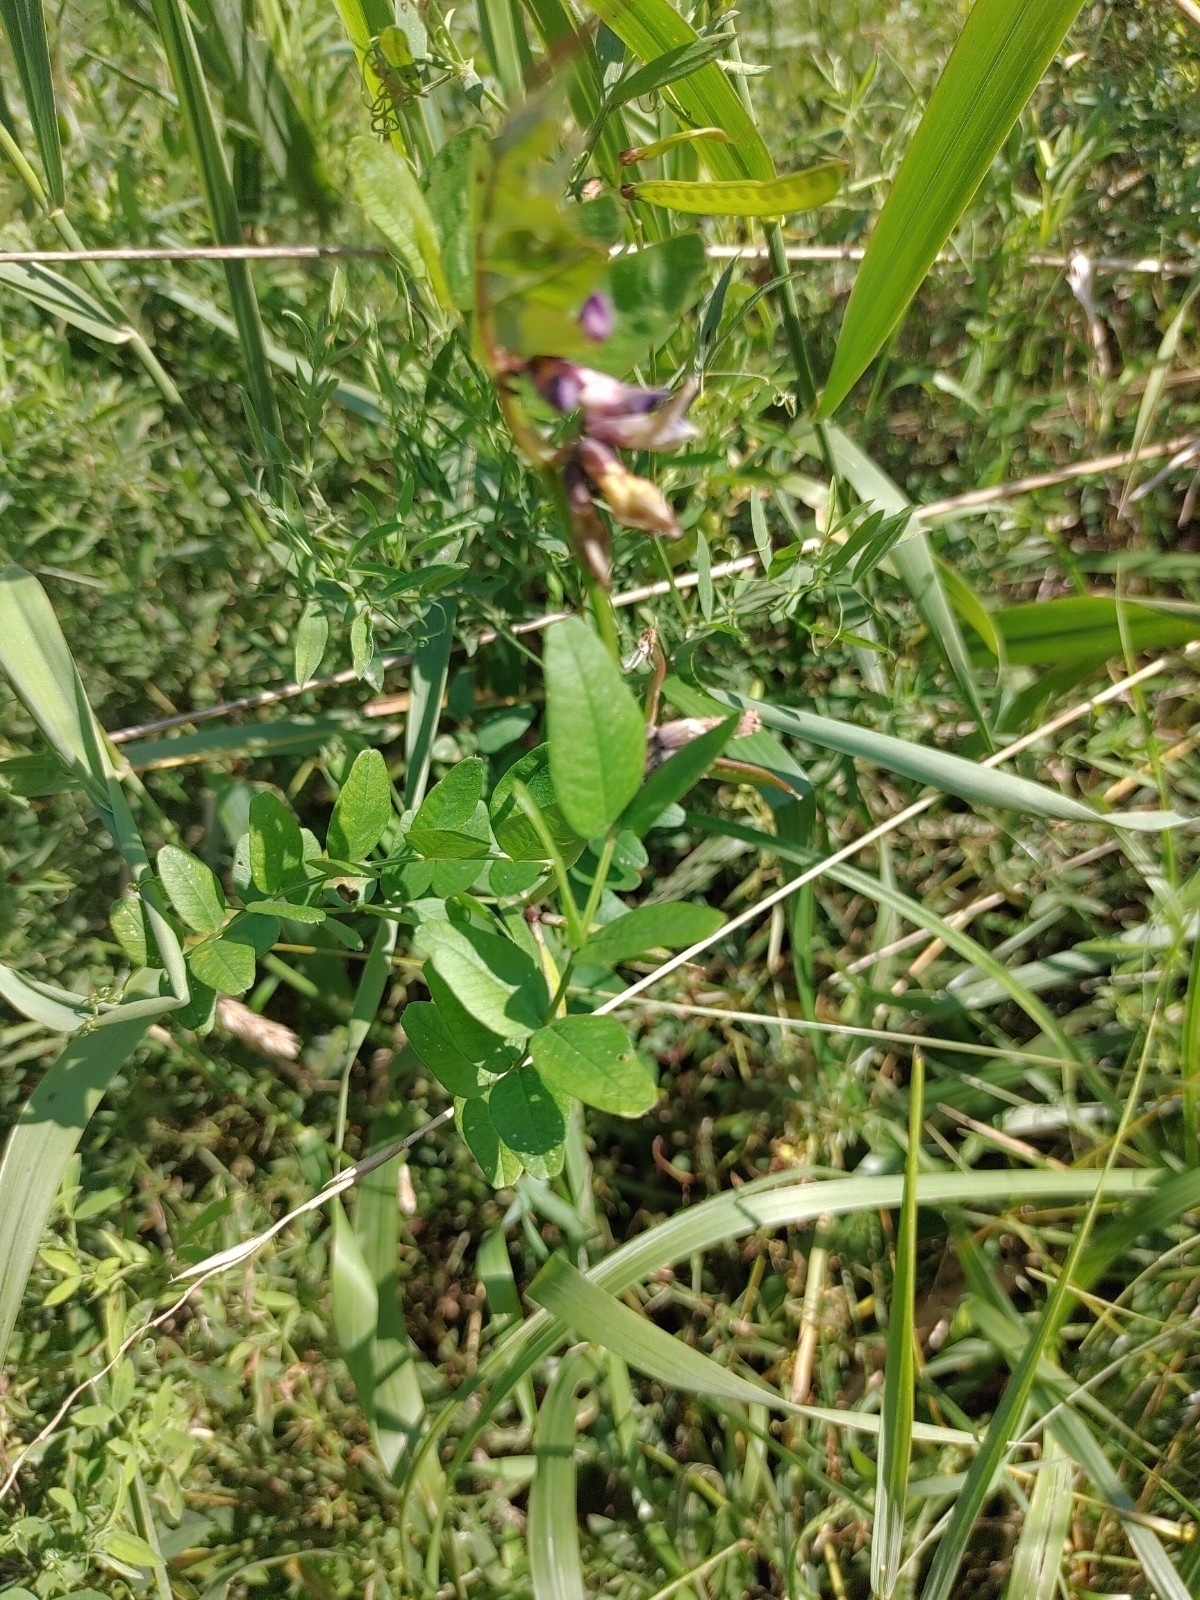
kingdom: Plantae
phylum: Tracheophyta
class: Magnoliopsida
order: Fabales
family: Fabaceae
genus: Vicia
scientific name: Vicia sepium
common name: Bush vetch
